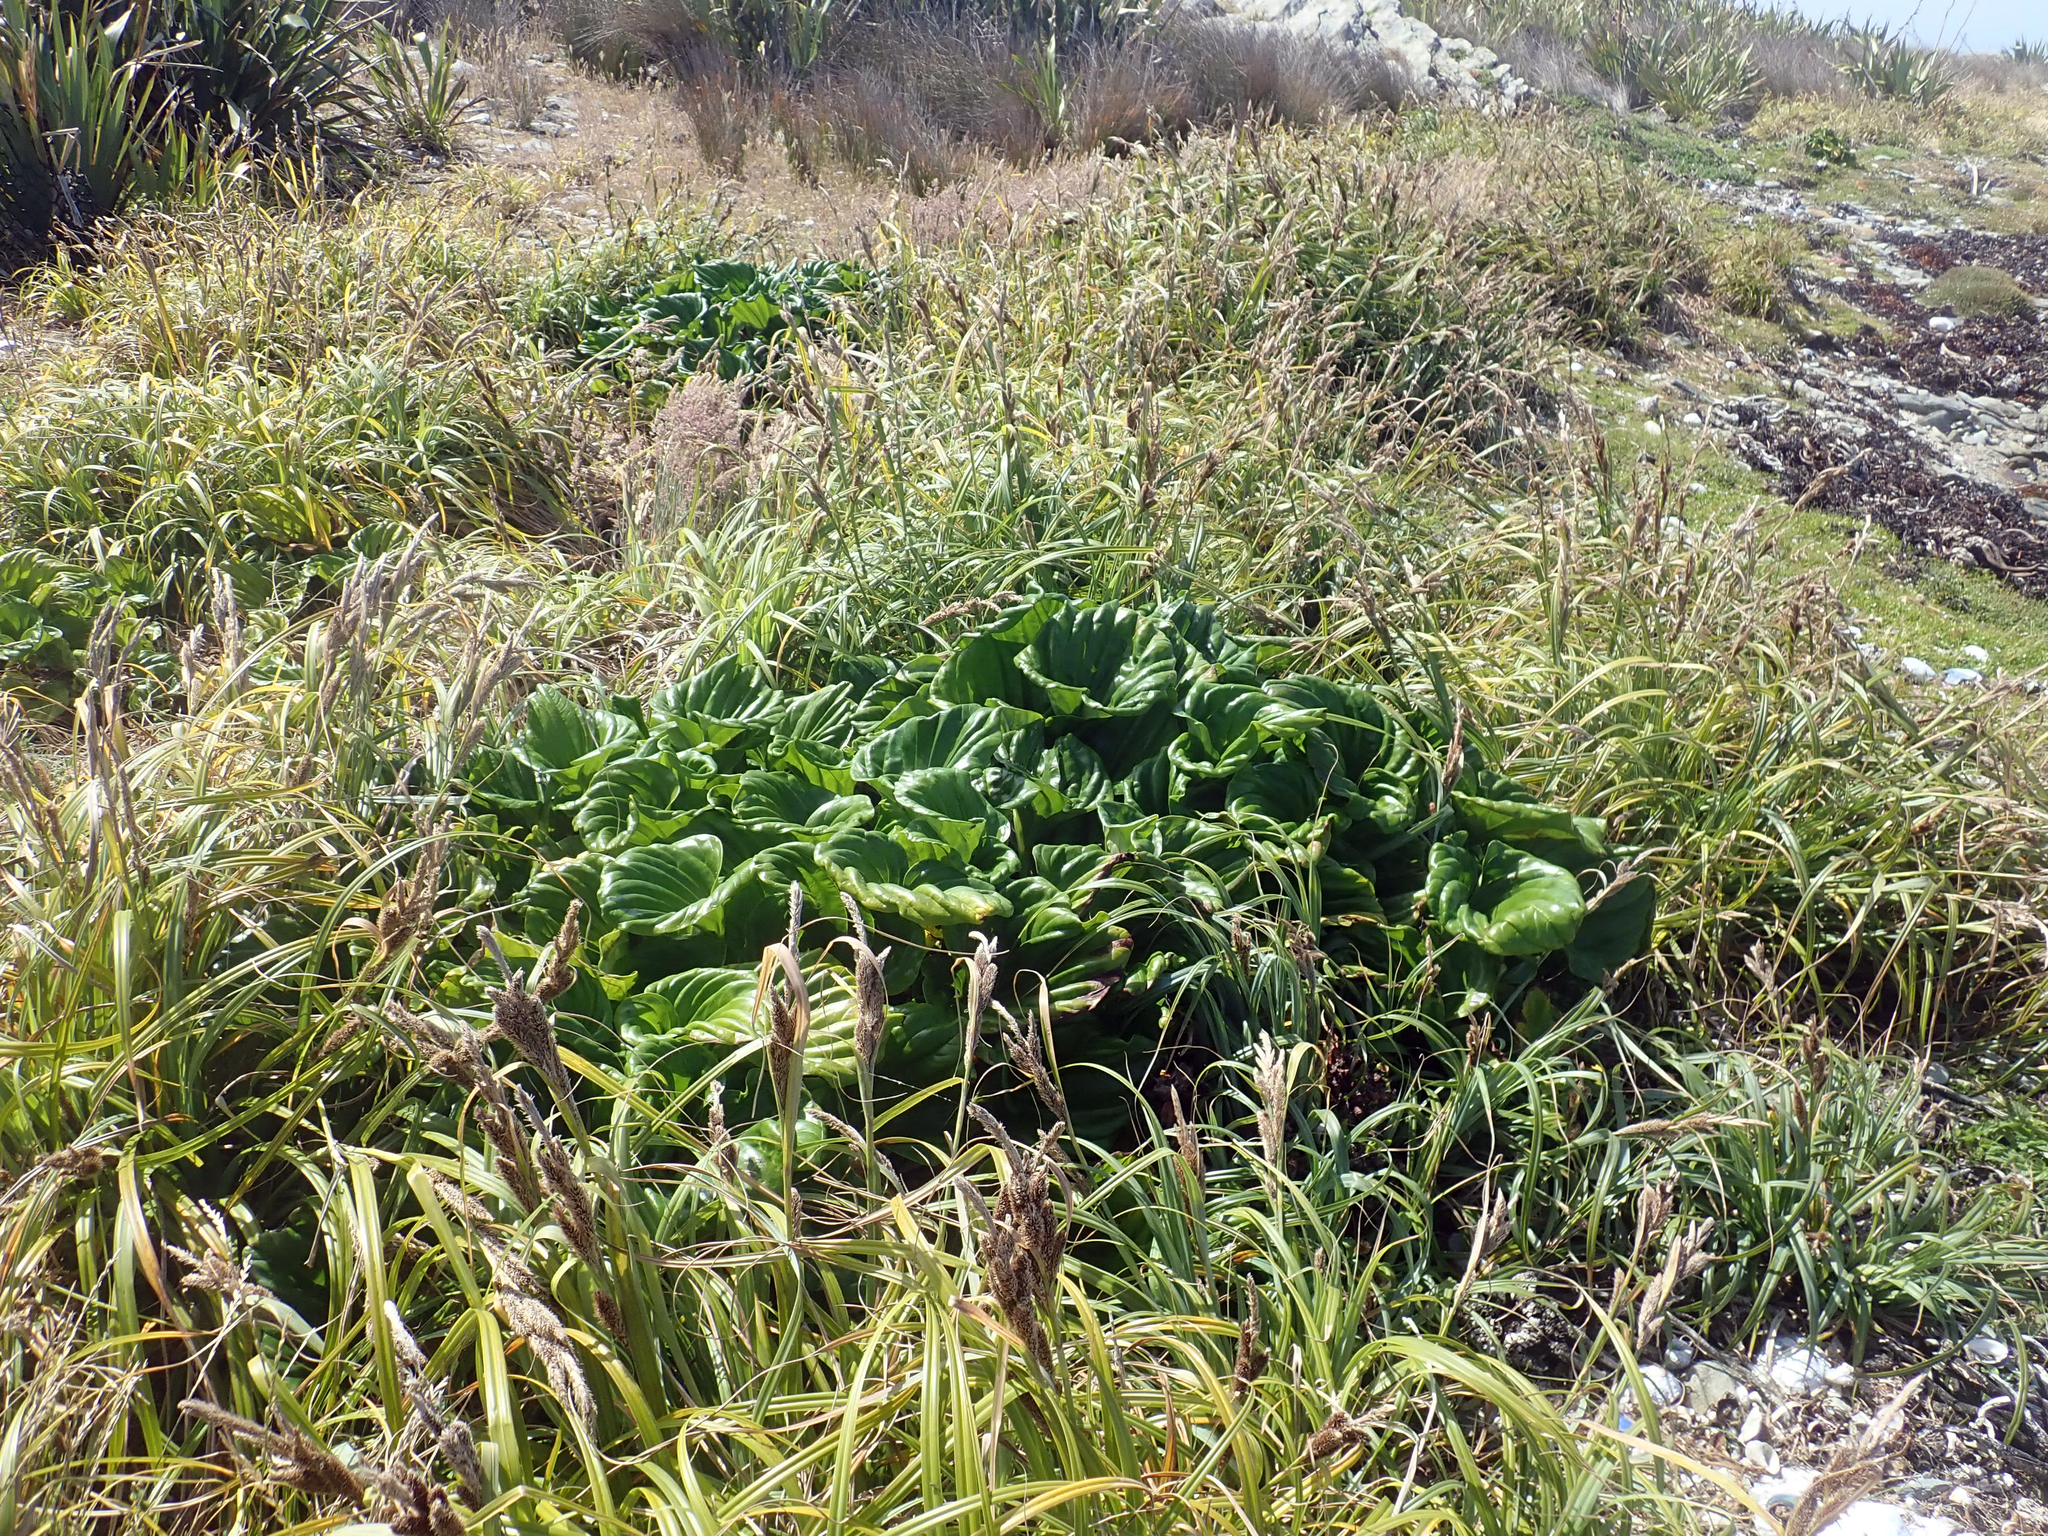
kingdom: Plantae
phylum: Tracheophyta
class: Magnoliopsida
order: Boraginales
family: Boraginaceae
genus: Myosotidium
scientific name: Myosotidium hortensia
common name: Giant forget-me-not
